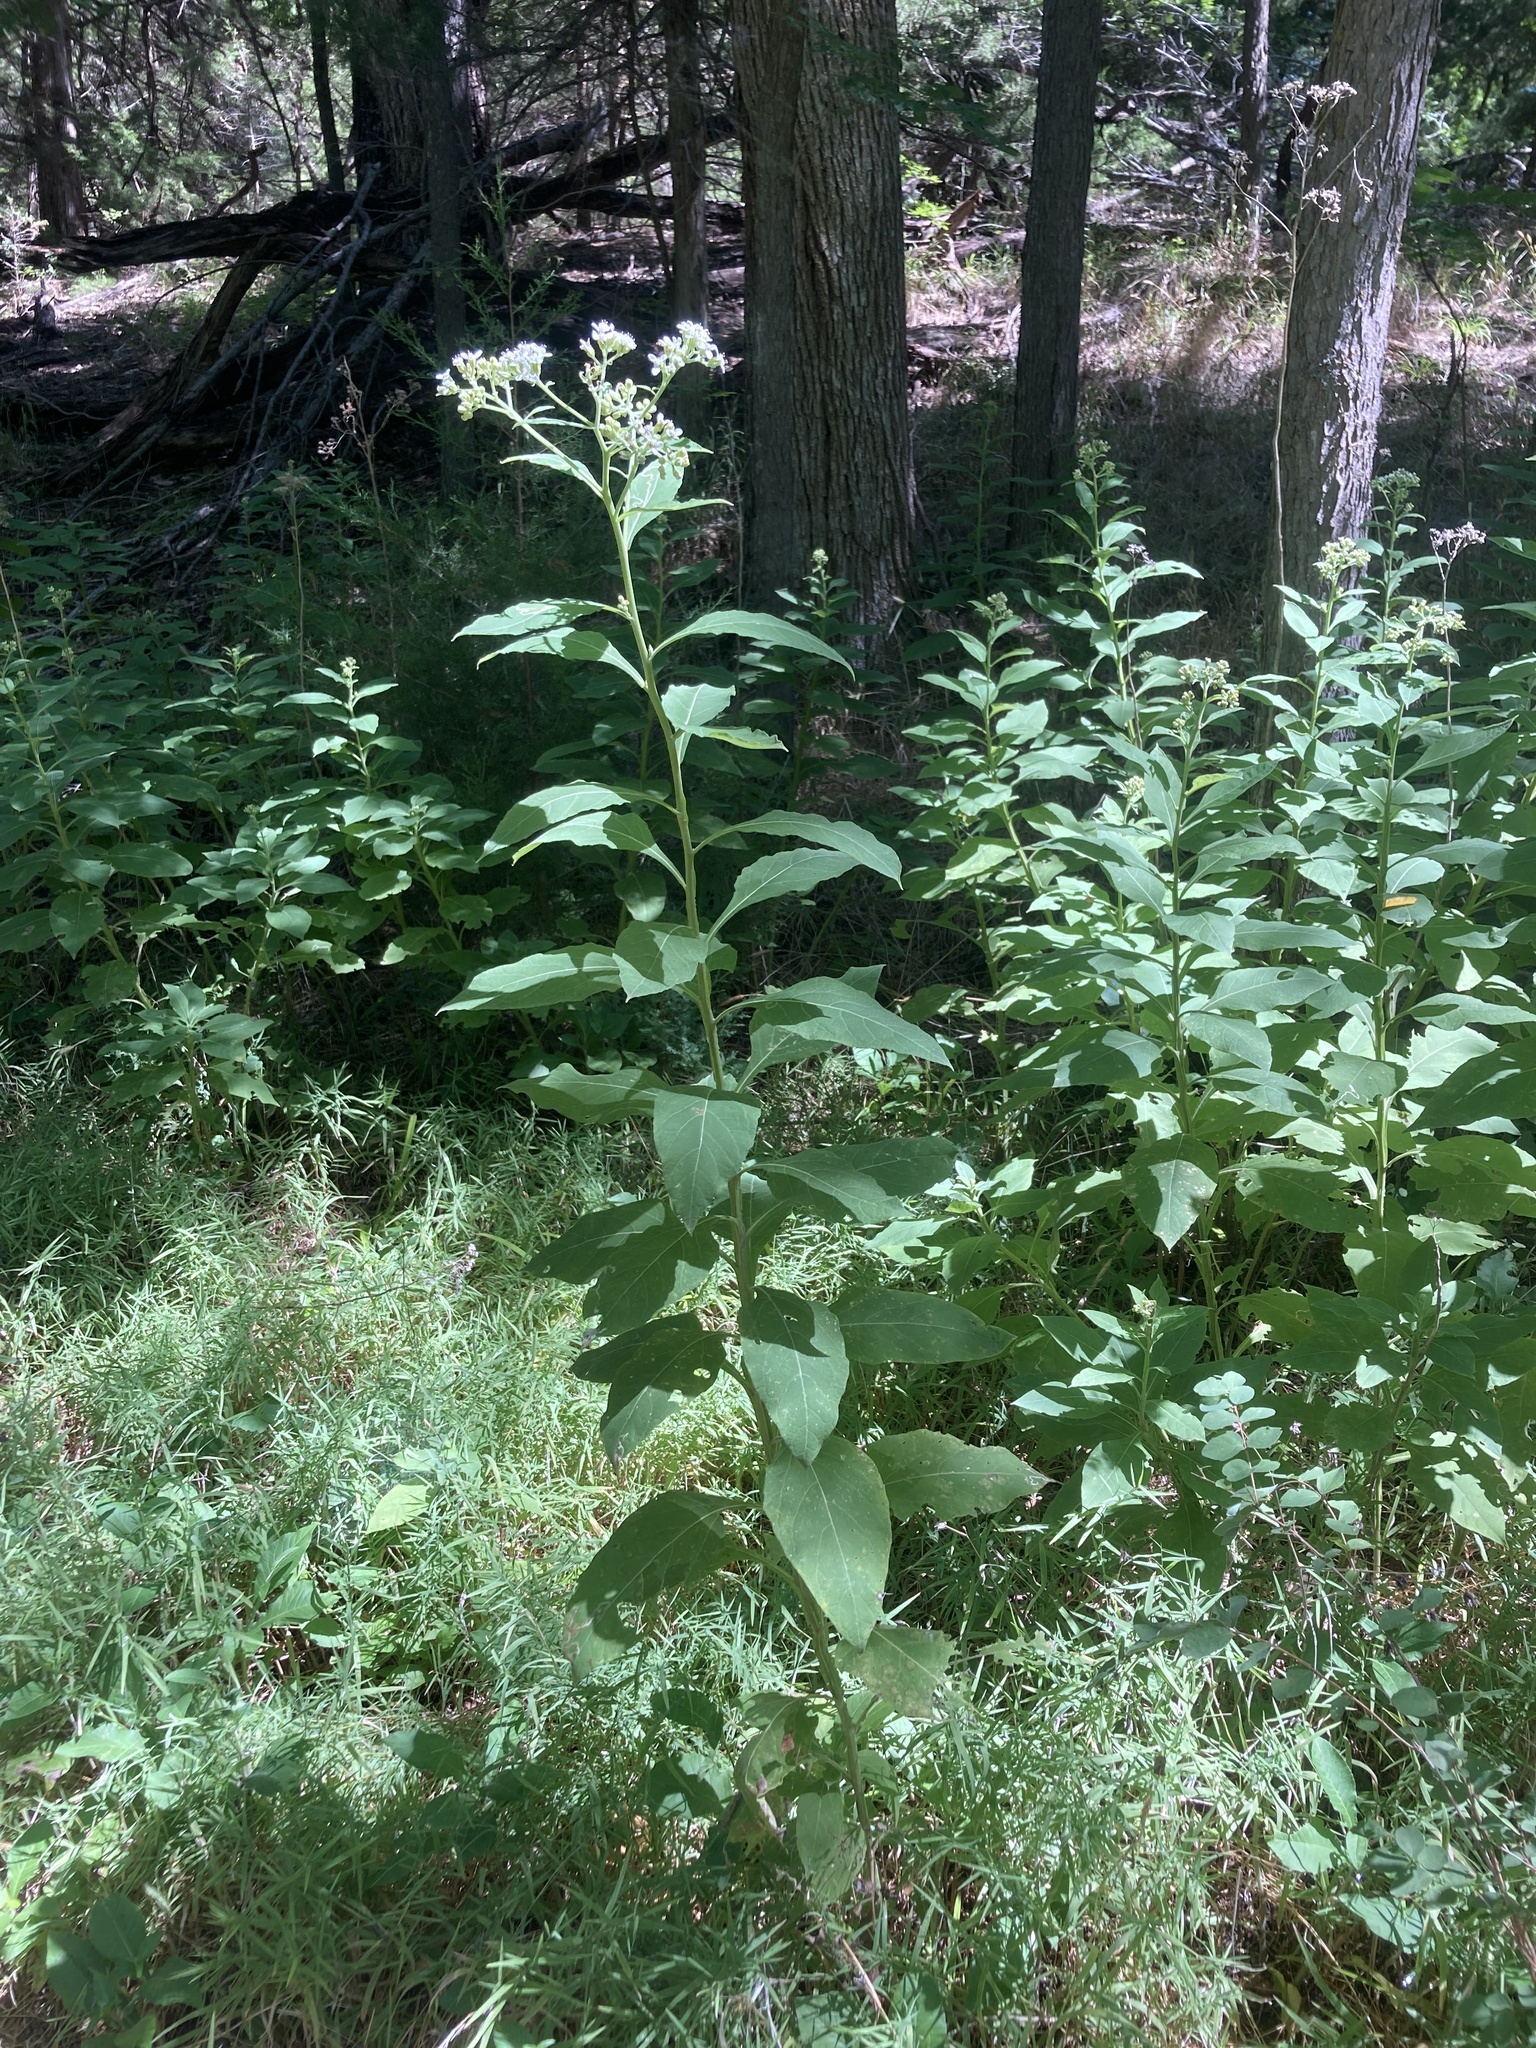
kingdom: Plantae
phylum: Tracheophyta
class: Magnoliopsida
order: Asterales
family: Asteraceae
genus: Verbesina
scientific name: Verbesina virginica
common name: Frostweed
